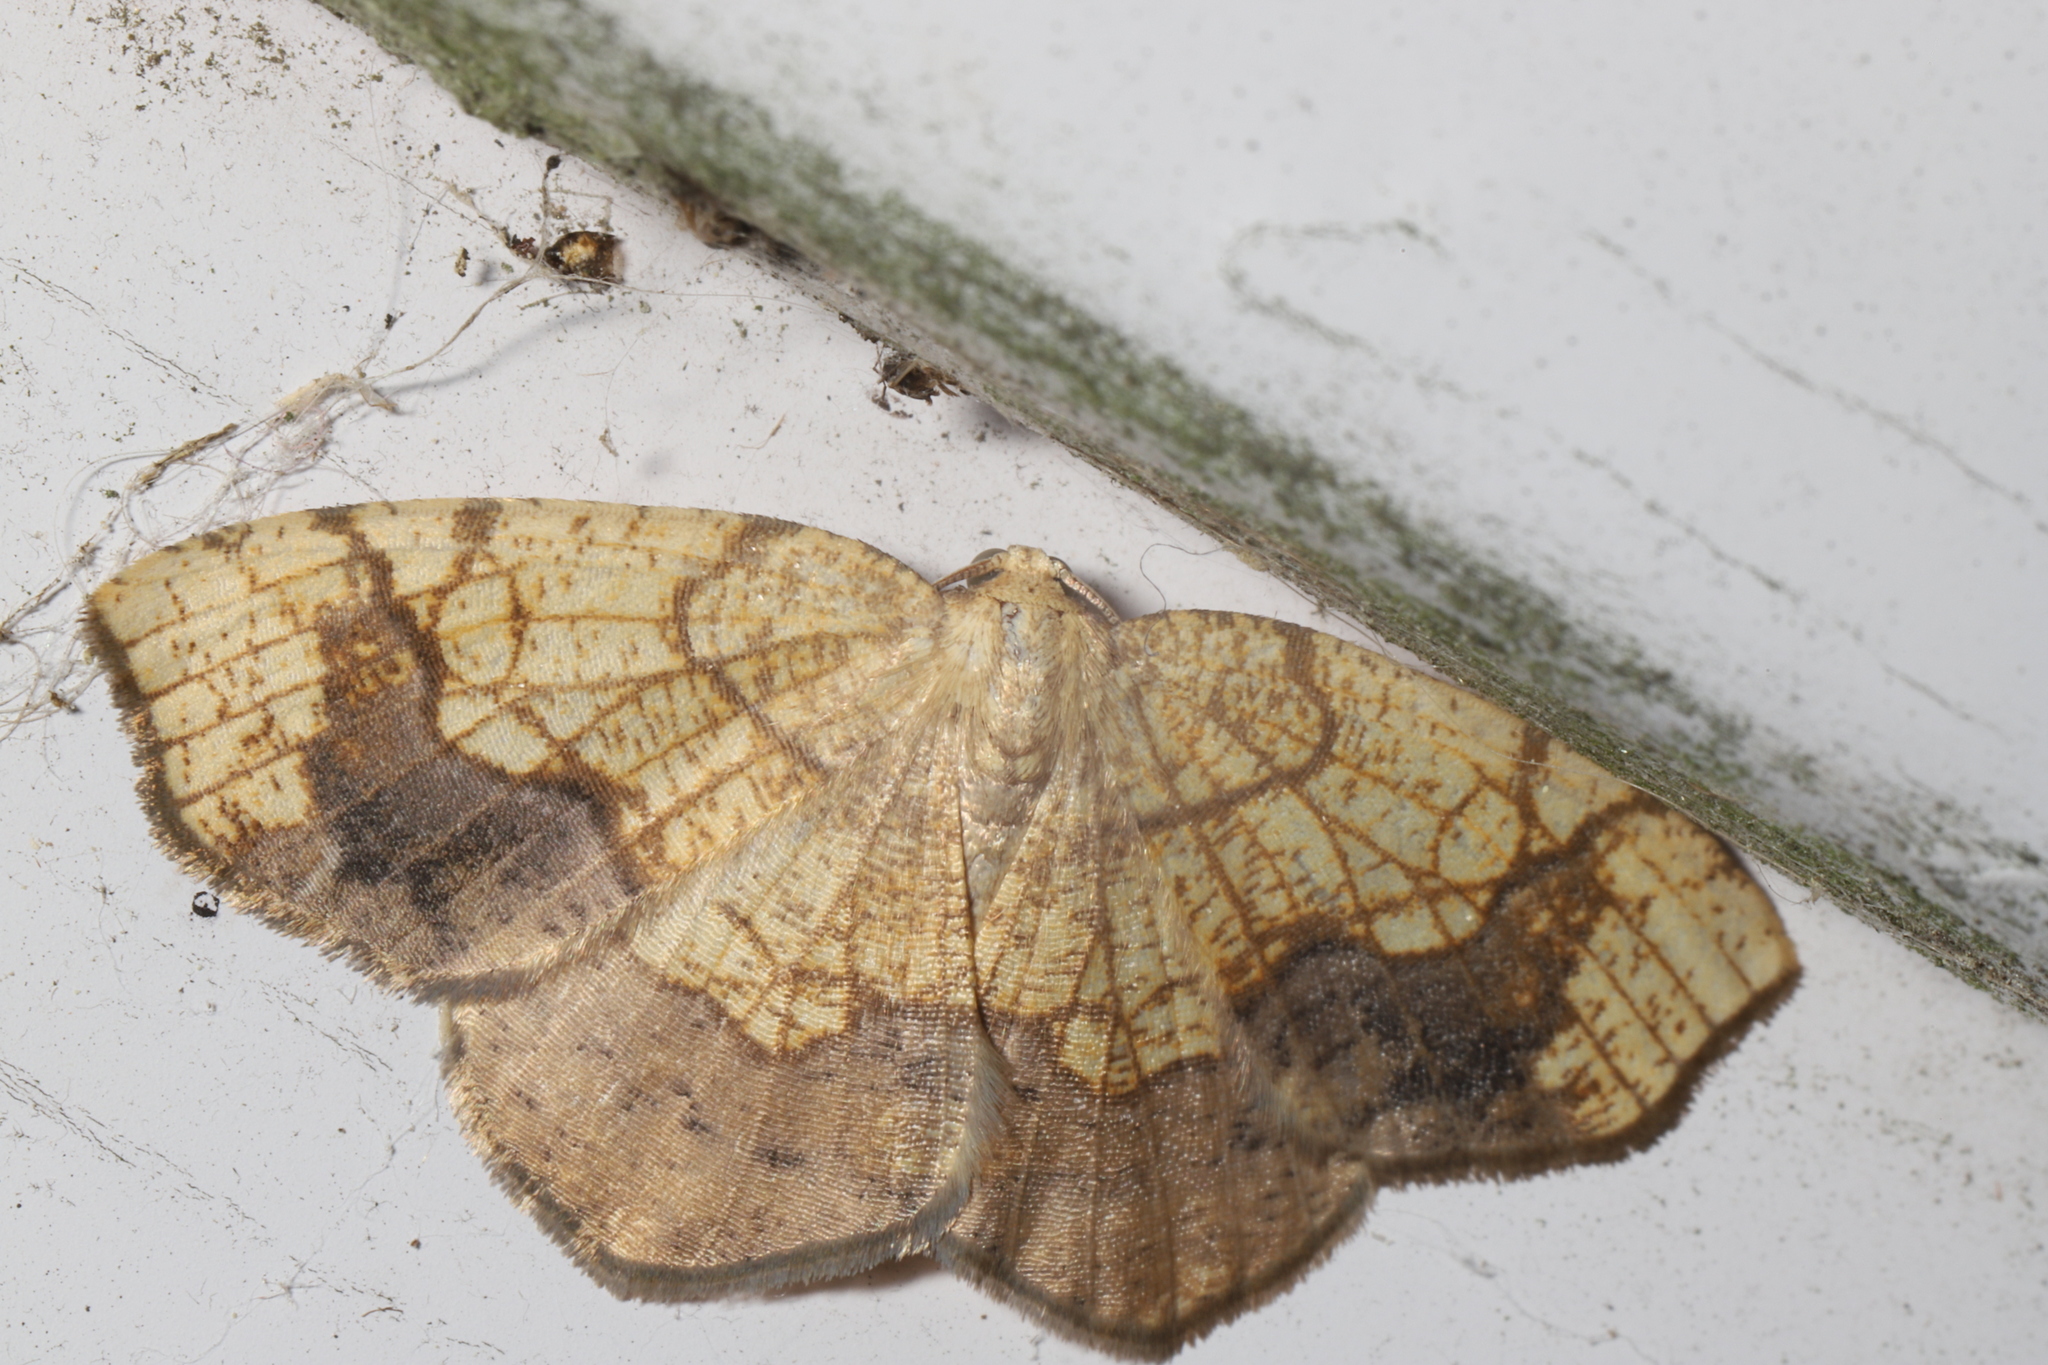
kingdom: Animalia
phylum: Arthropoda
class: Insecta
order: Lepidoptera
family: Geometridae
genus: Nematocampa
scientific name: Nematocampa resistaria
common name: Horned spanworm moth
